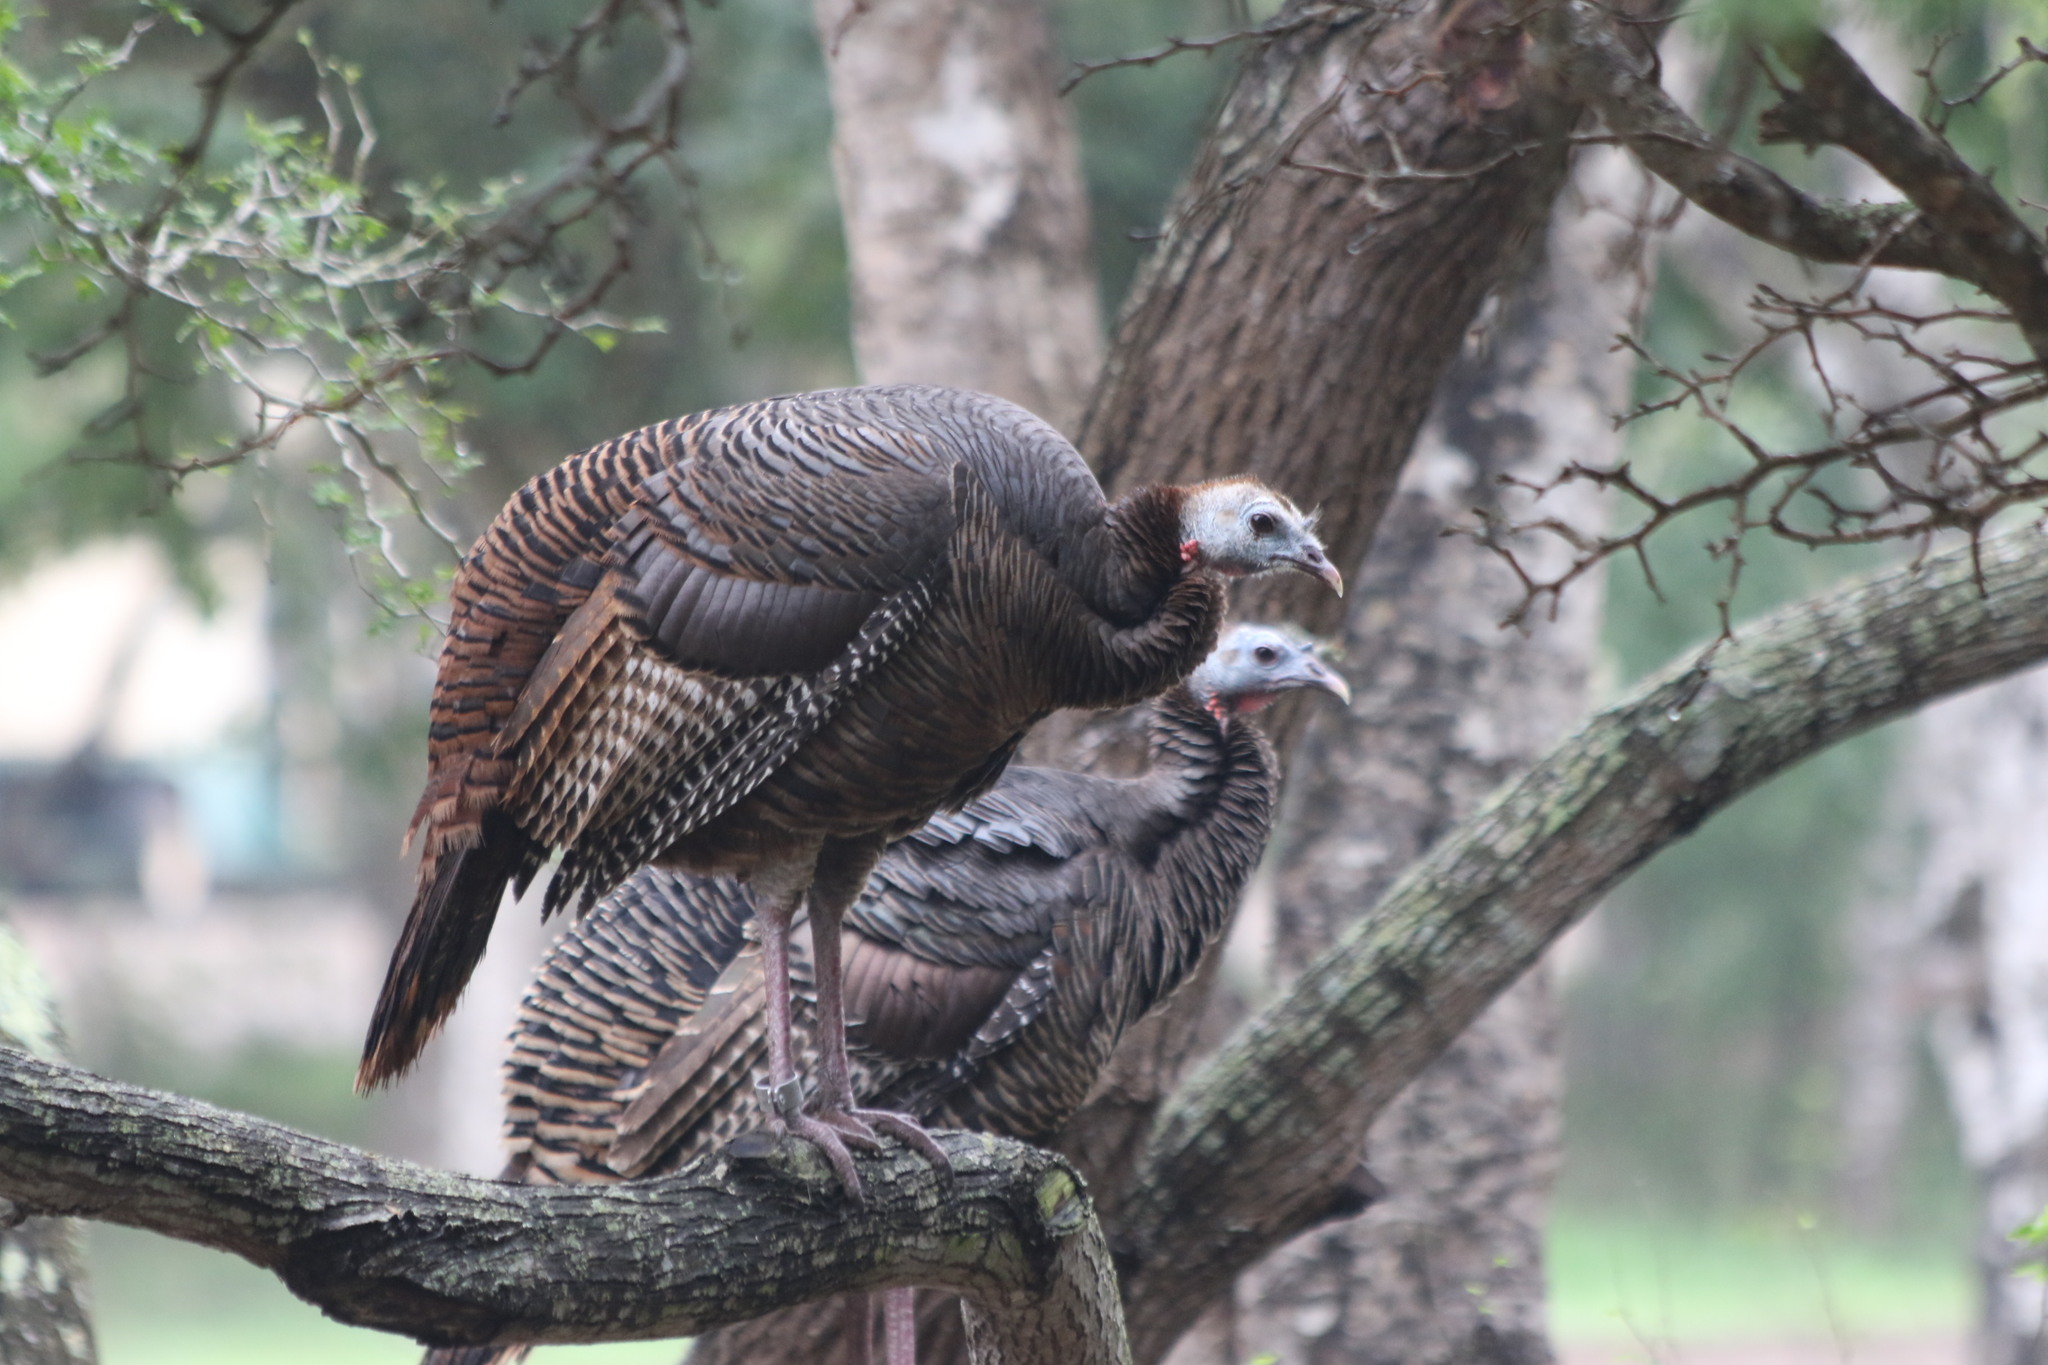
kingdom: Animalia
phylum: Chordata
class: Aves
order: Galliformes
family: Phasianidae
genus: Meleagris
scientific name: Meleagris gallopavo
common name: Wild turkey
